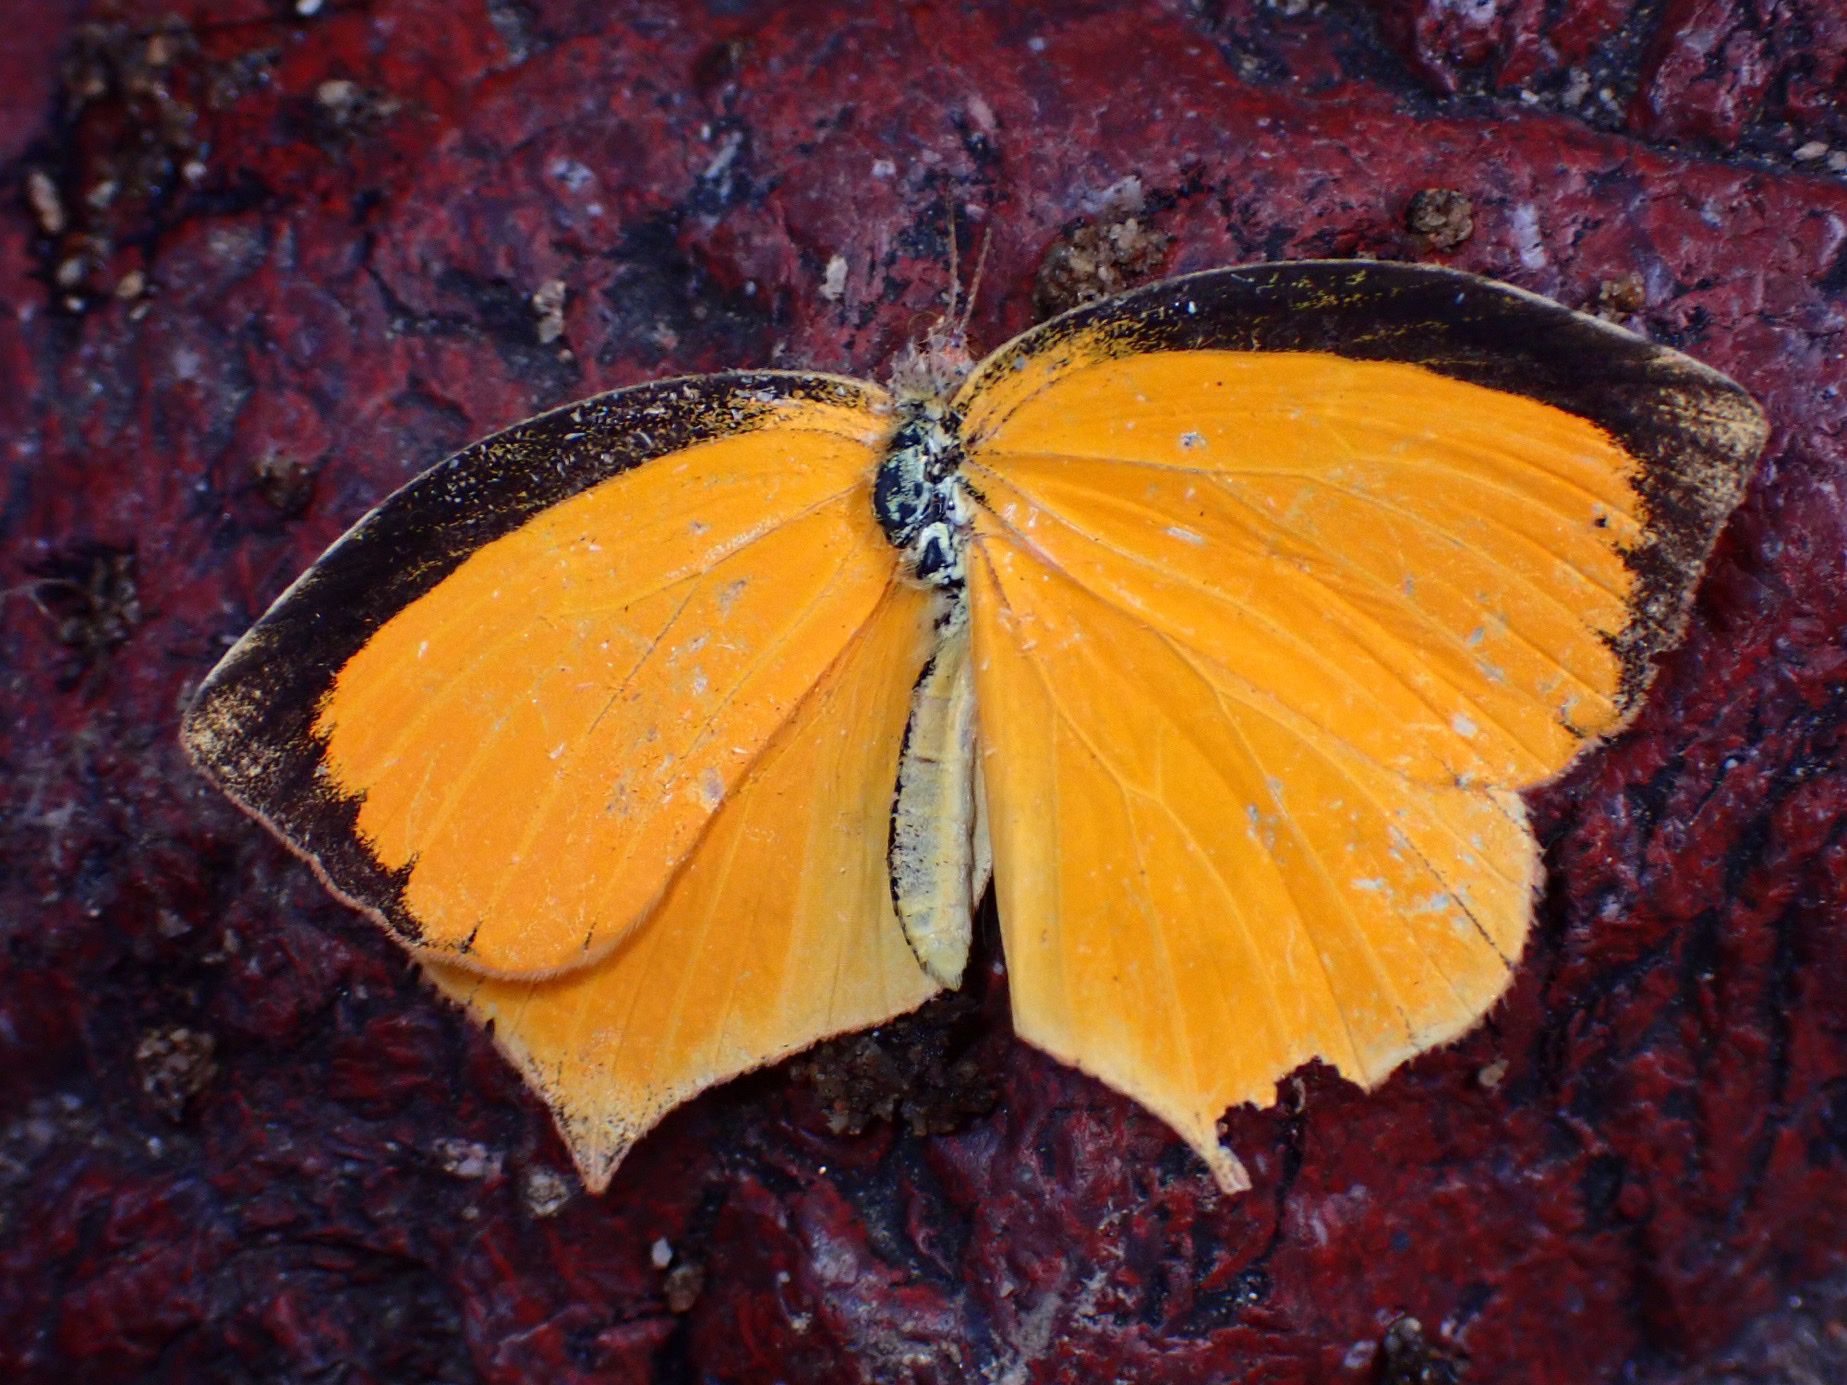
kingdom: Animalia
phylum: Arthropoda
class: Insecta
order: Lepidoptera
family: Pieridae
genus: Pyrisitia
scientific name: Pyrisitia proterpia
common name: Tailed orange
